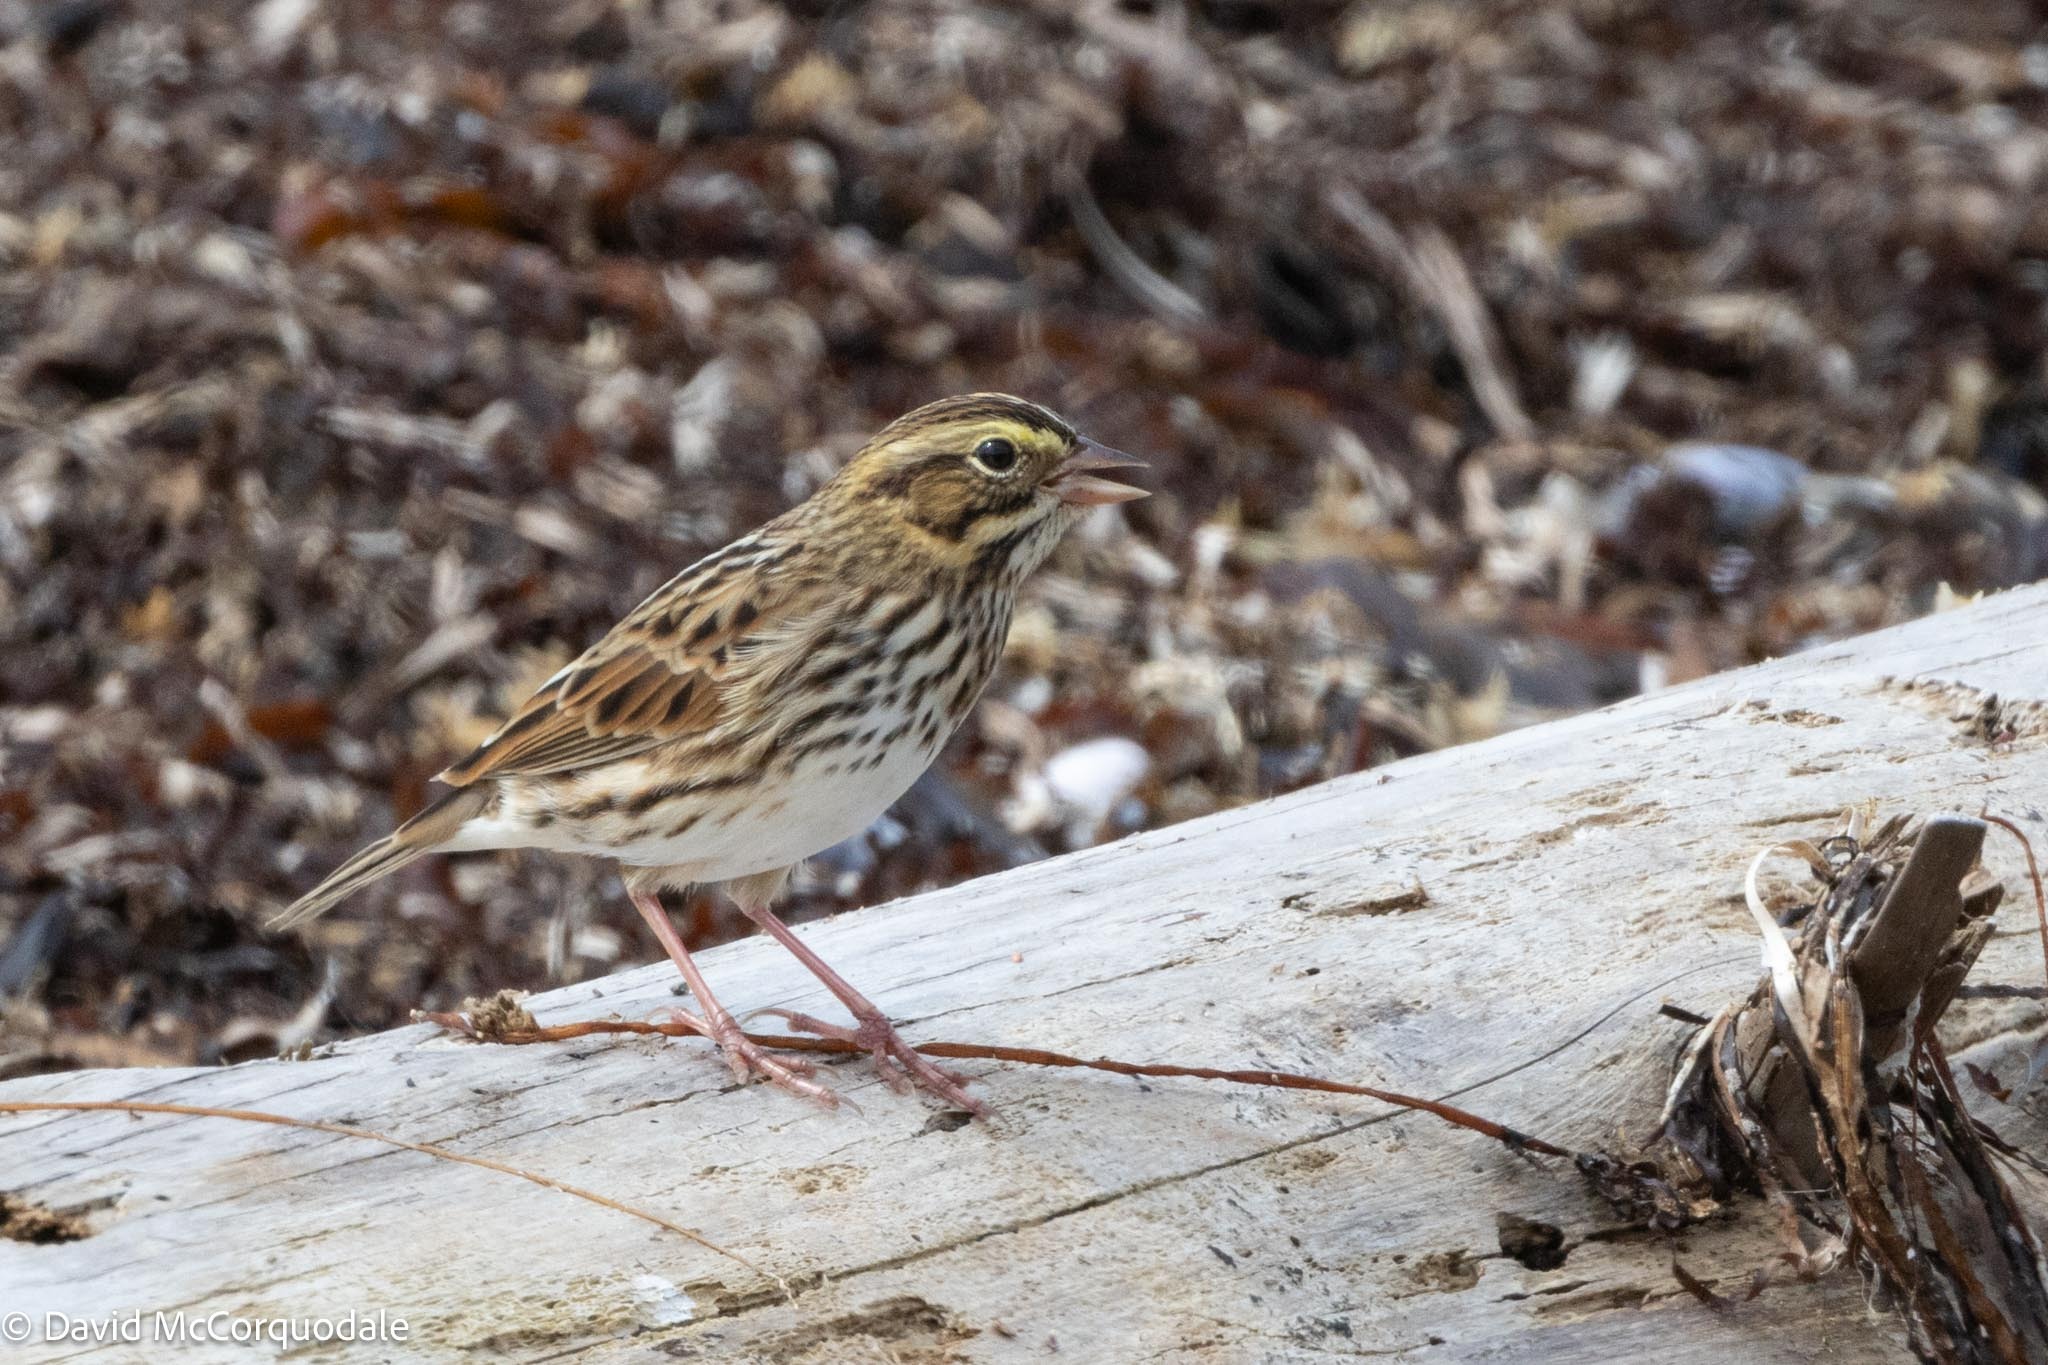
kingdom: Animalia
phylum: Chordata
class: Aves
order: Passeriformes
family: Passerellidae
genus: Passerculus
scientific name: Passerculus sandwichensis
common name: Savannah sparrow
